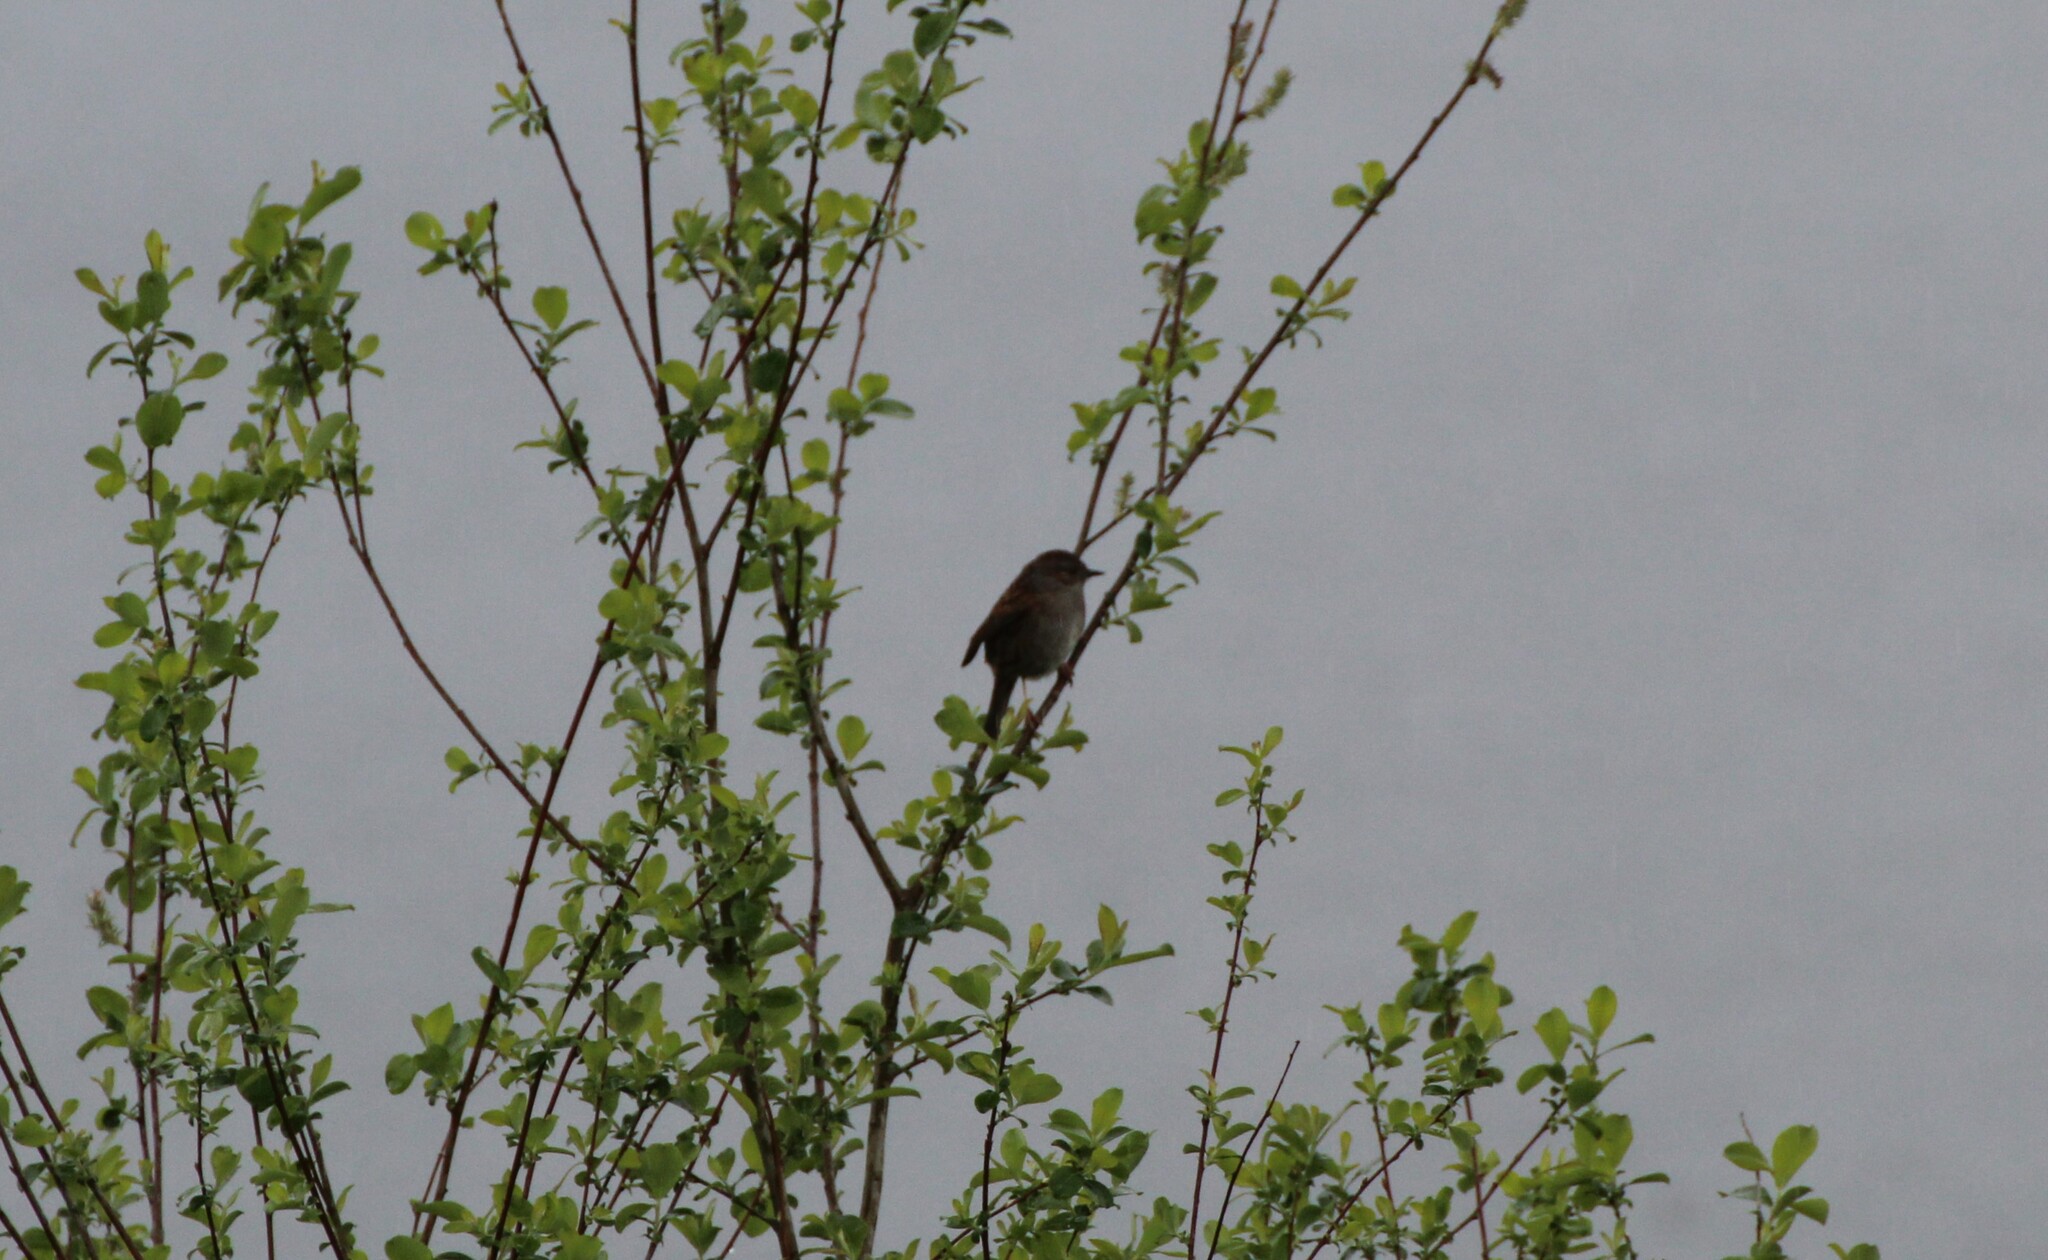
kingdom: Animalia
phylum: Chordata
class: Aves
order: Passeriformes
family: Prunellidae
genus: Prunella
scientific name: Prunella modularis
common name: Dunnock
